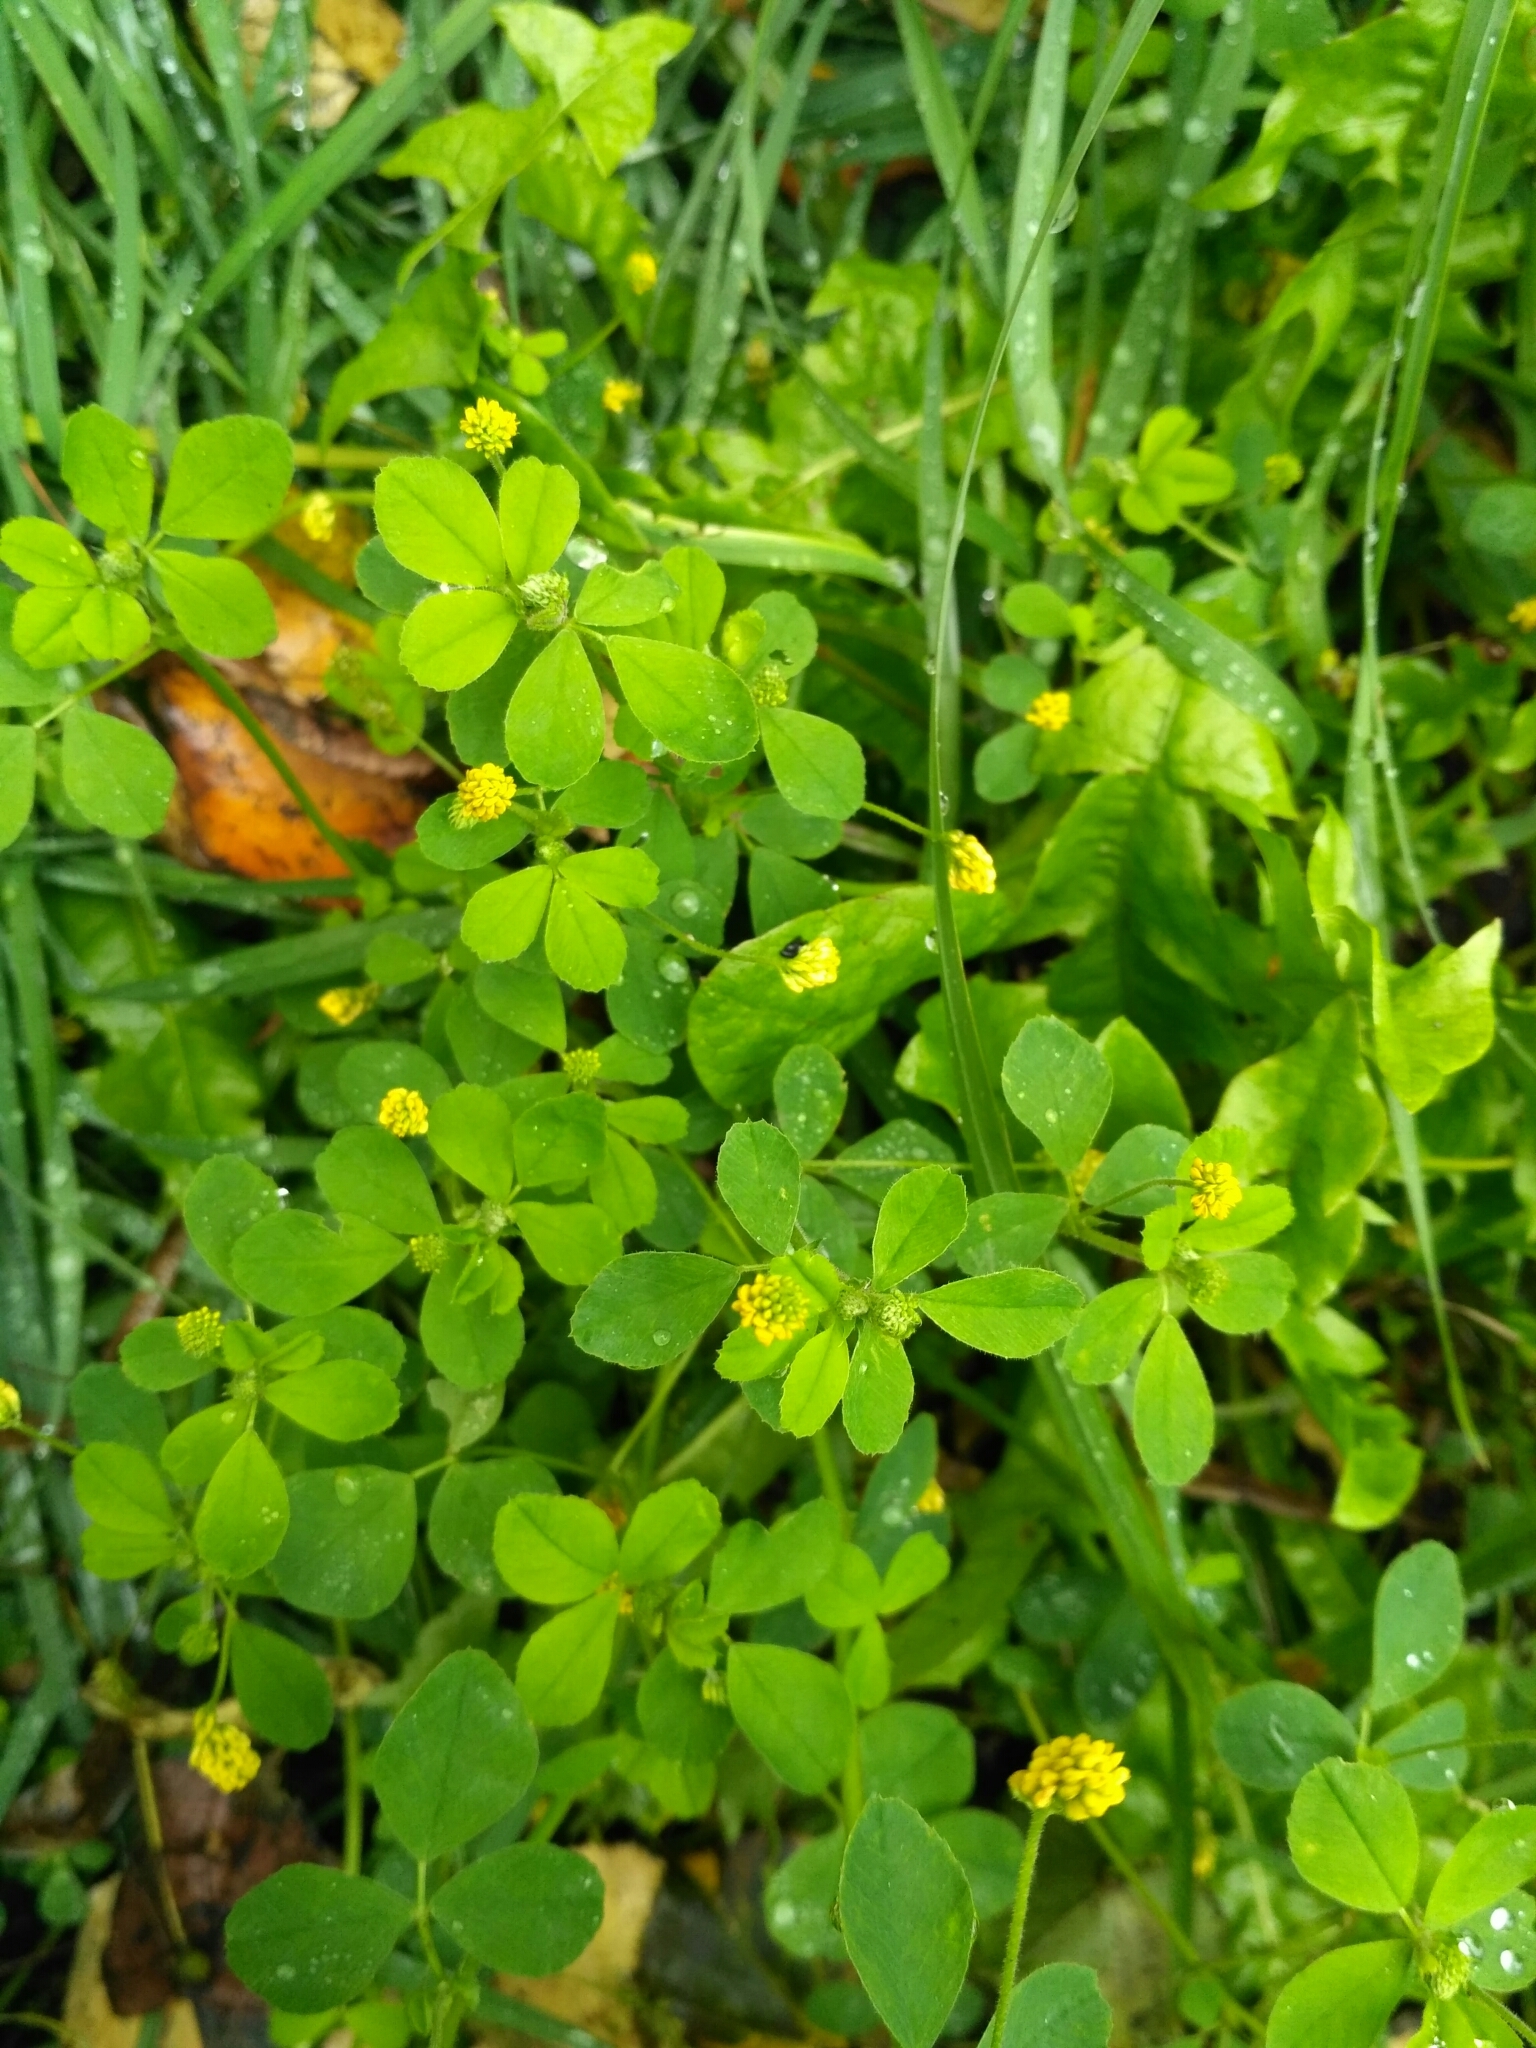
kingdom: Plantae
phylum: Tracheophyta
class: Magnoliopsida
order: Fabales
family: Fabaceae
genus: Medicago
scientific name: Medicago lupulina
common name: Black medick
